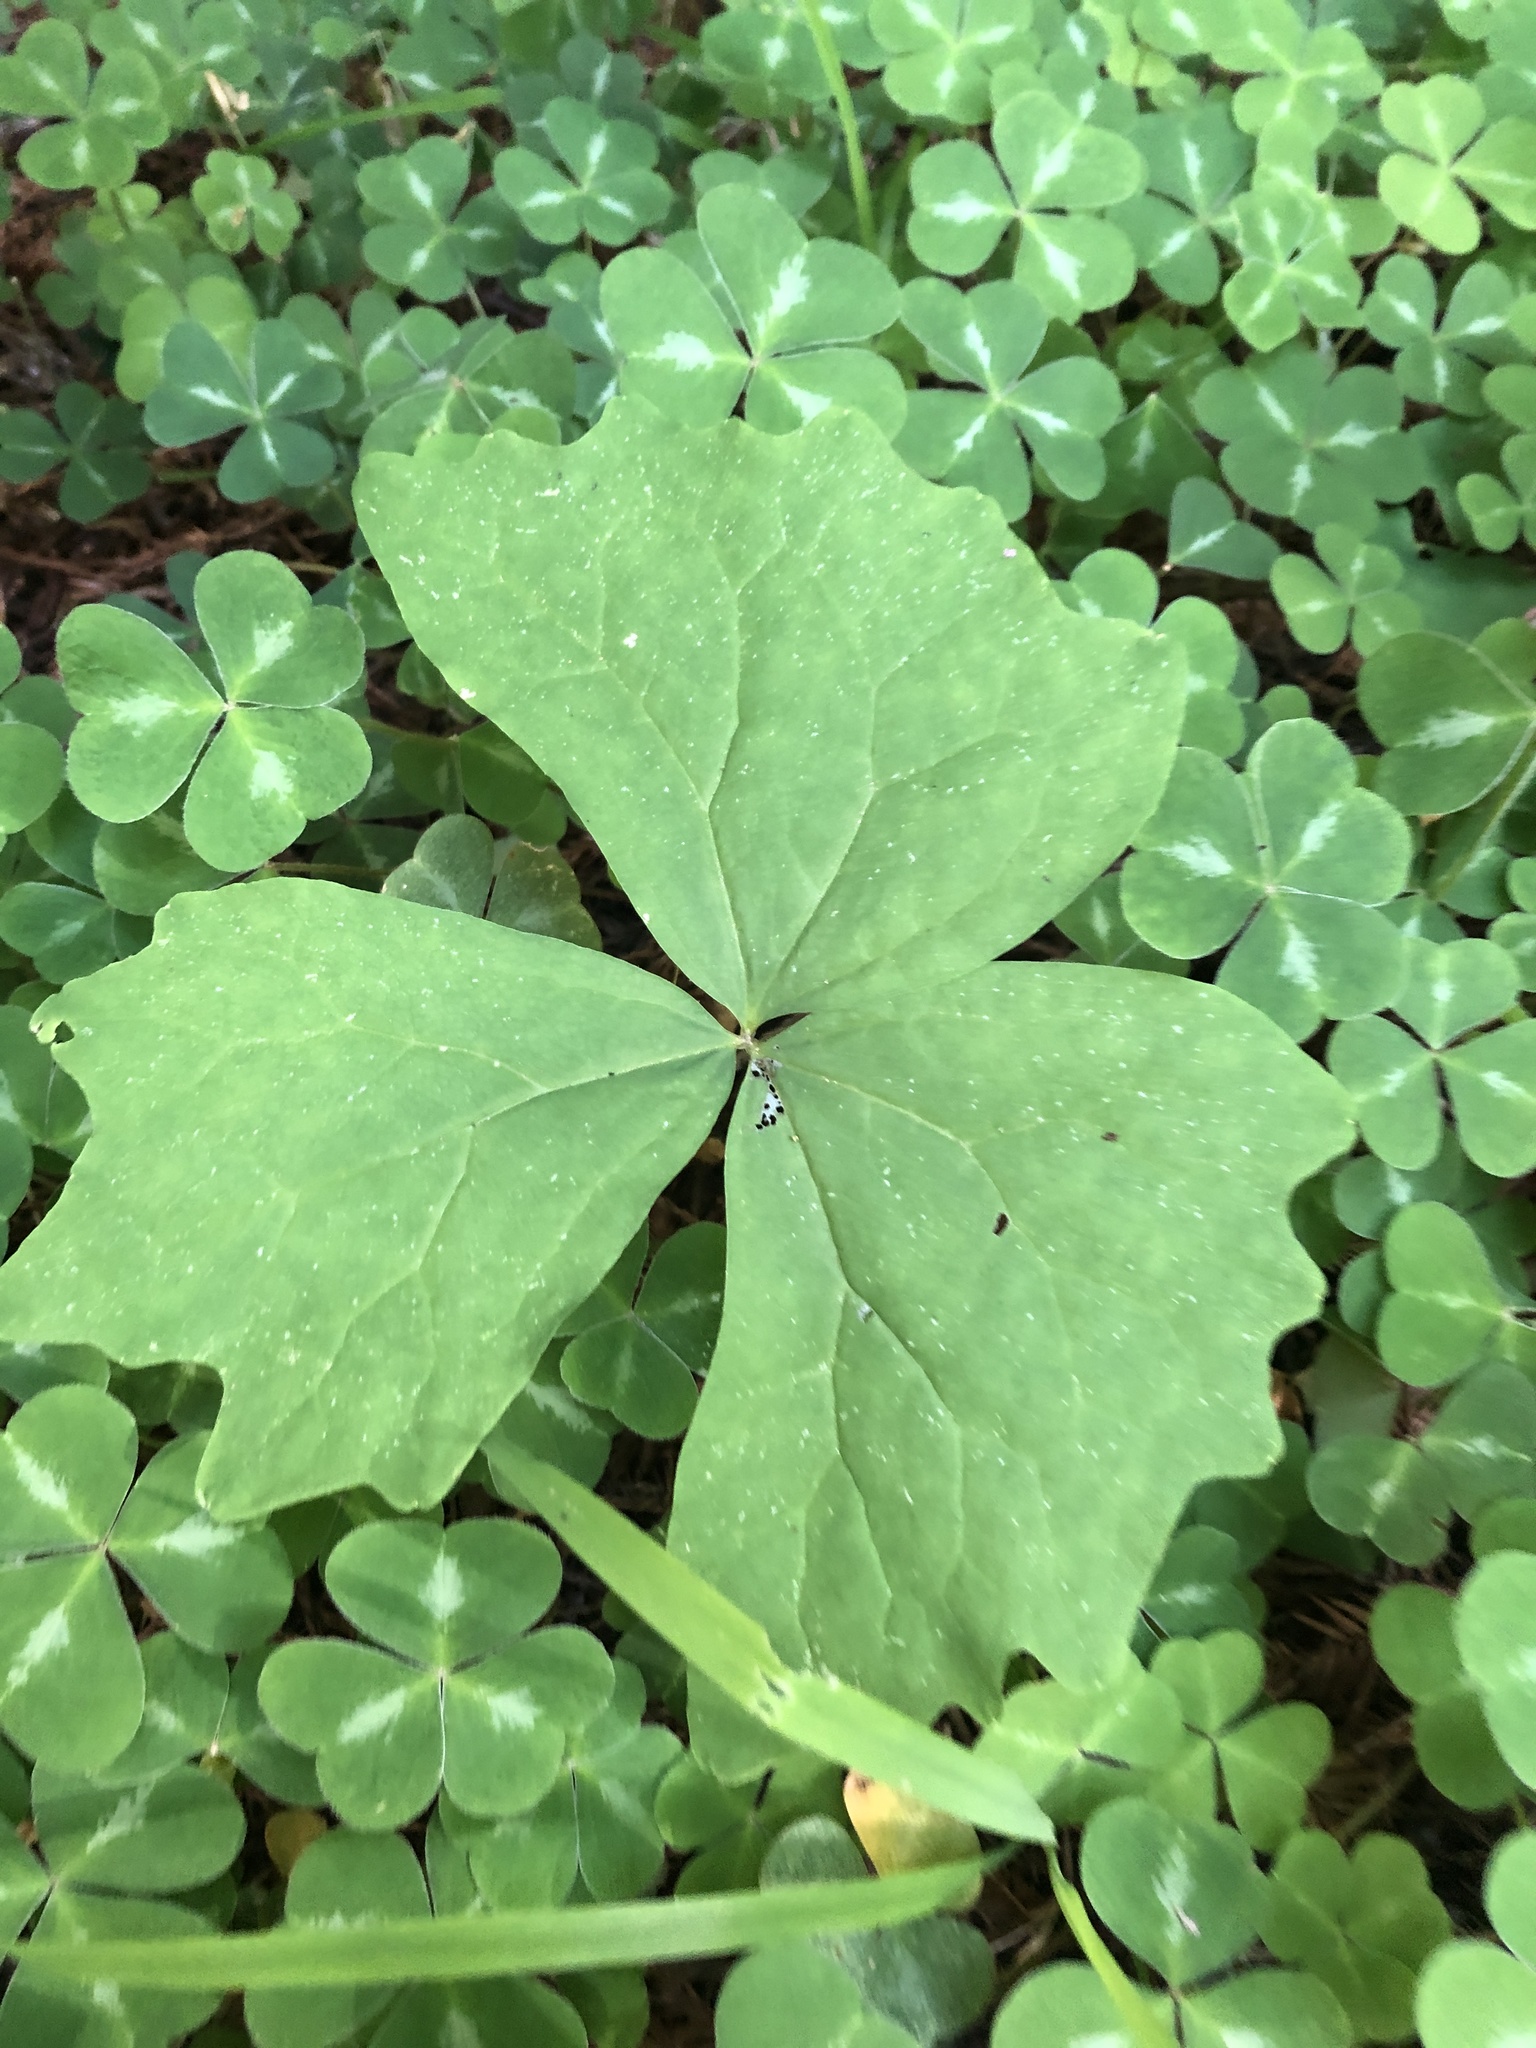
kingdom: Plantae
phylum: Tracheophyta
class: Magnoliopsida
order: Ranunculales
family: Berberidaceae
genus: Achlys
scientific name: Achlys triphylla
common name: Vanilla-leaf
